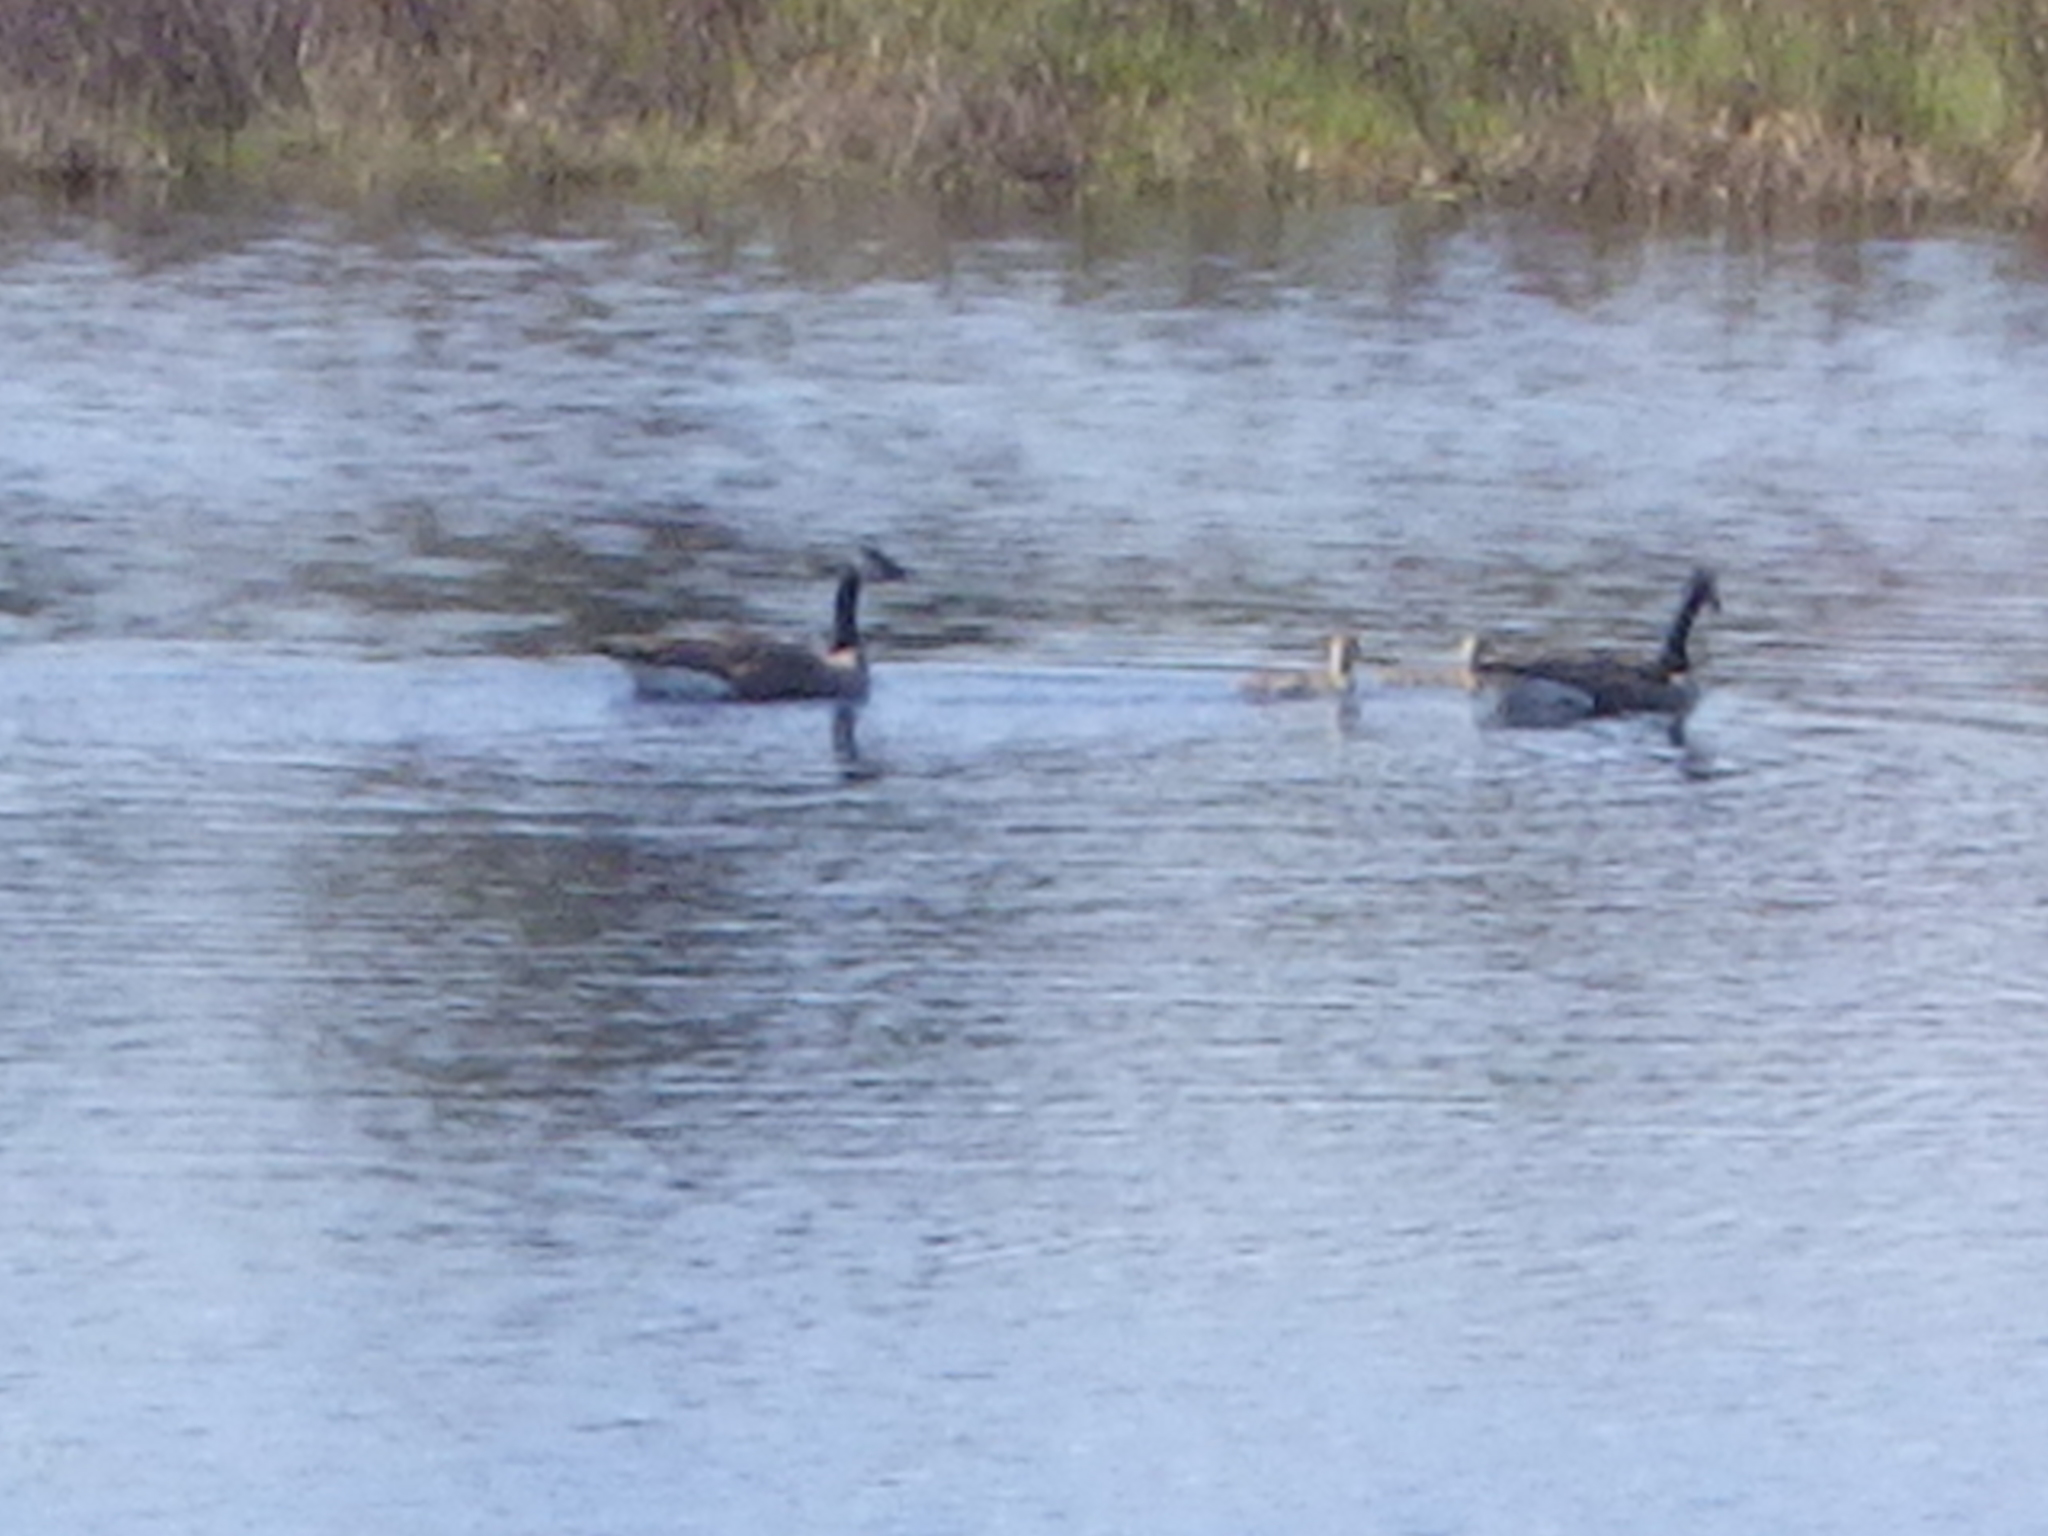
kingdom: Animalia
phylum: Chordata
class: Aves
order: Anseriformes
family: Anatidae
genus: Branta
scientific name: Branta canadensis
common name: Canada goose
